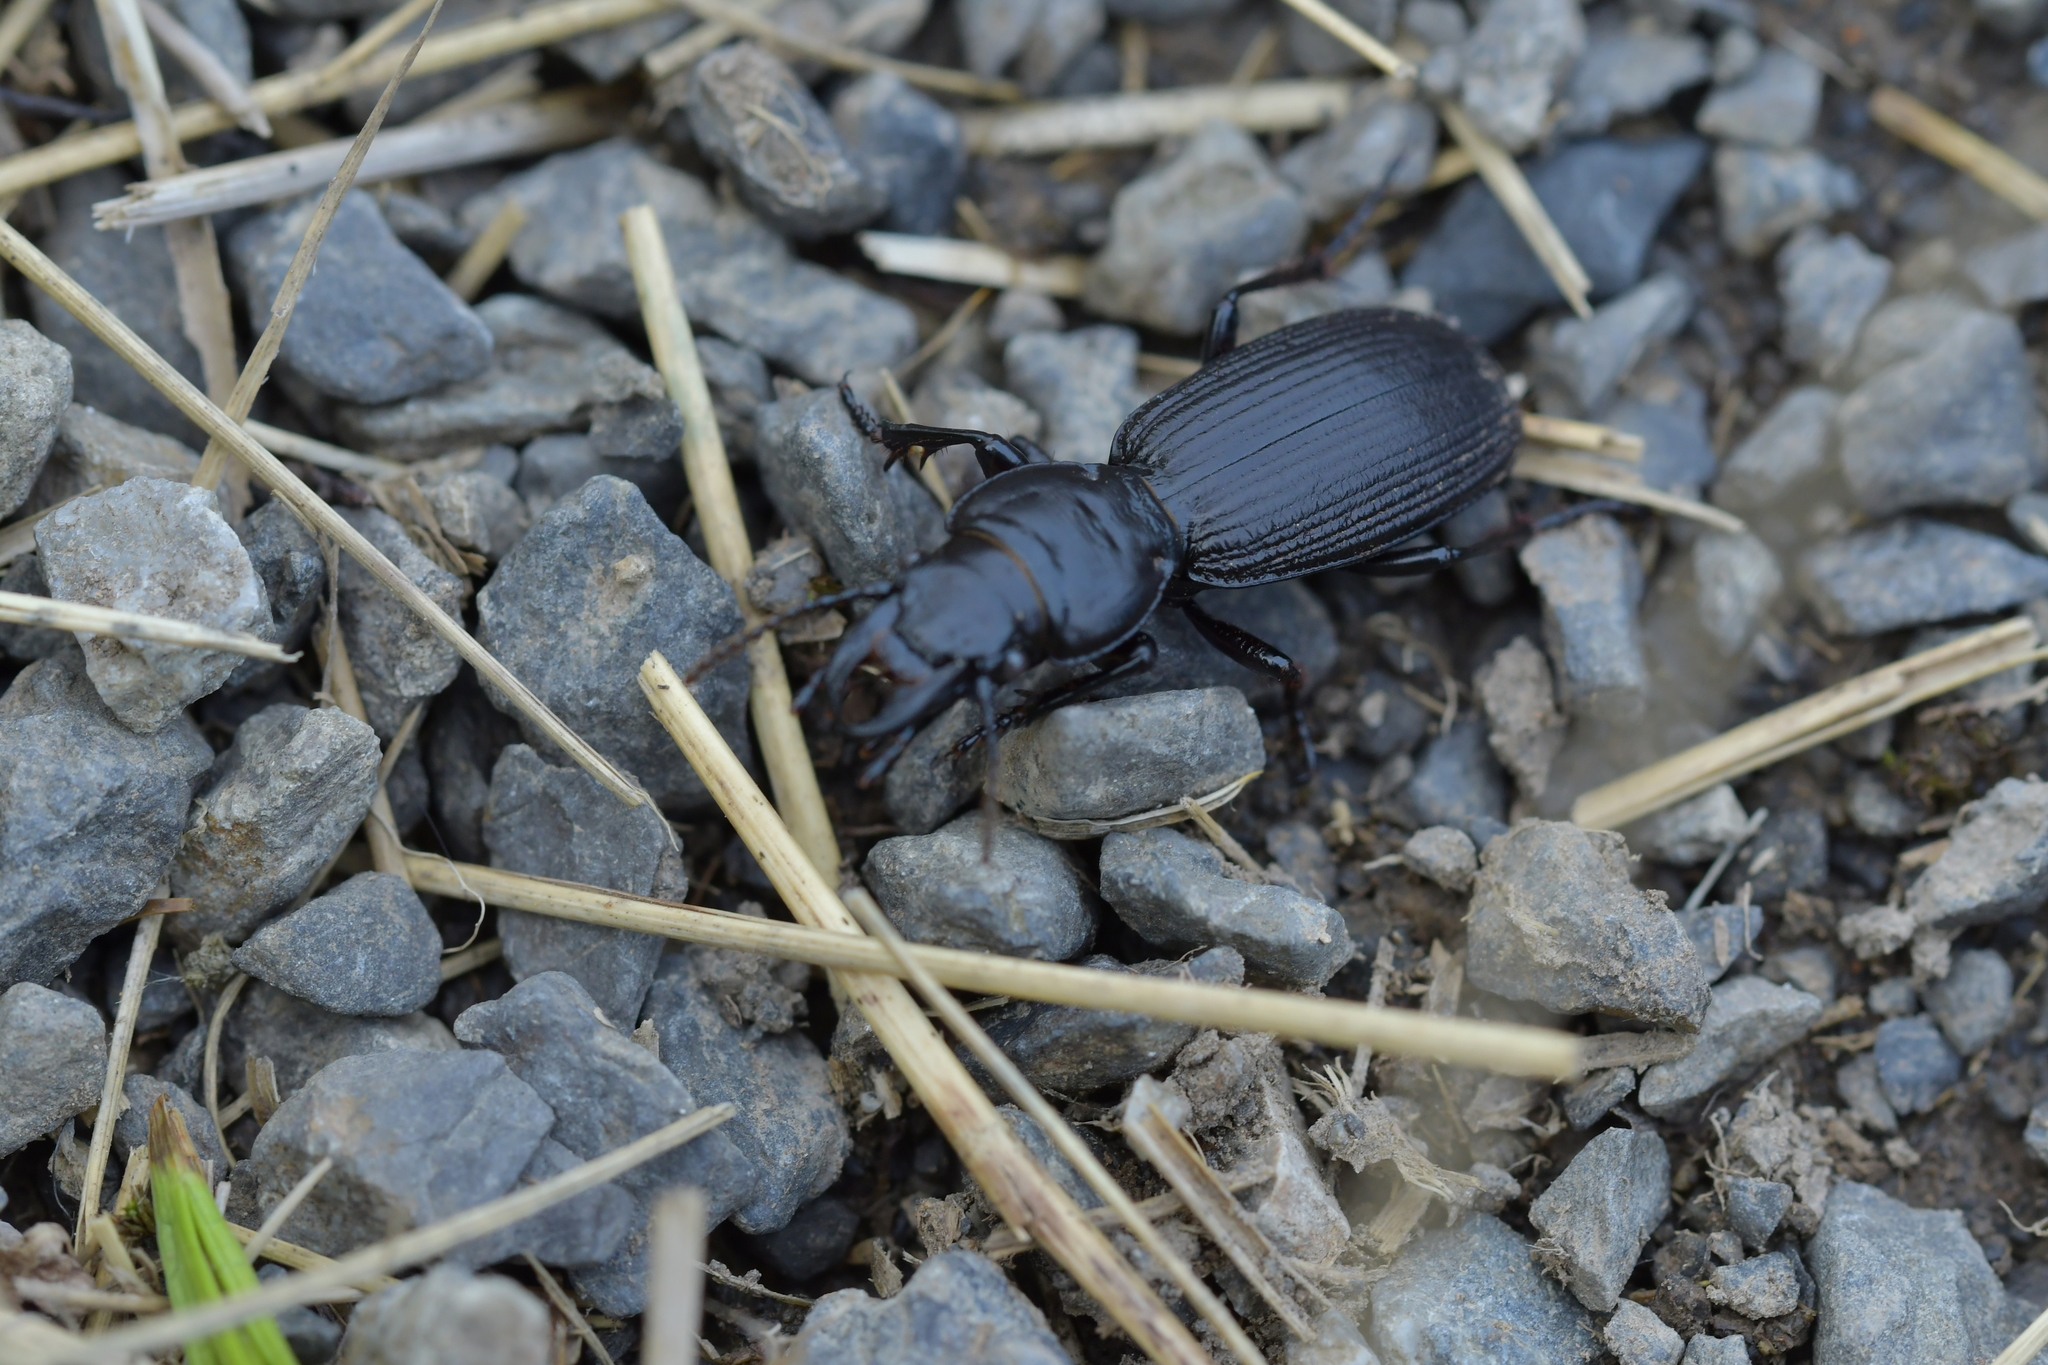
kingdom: Animalia
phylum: Arthropoda
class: Insecta
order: Coleoptera
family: Carabidae
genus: Mecodema
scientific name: Mecodema hector
